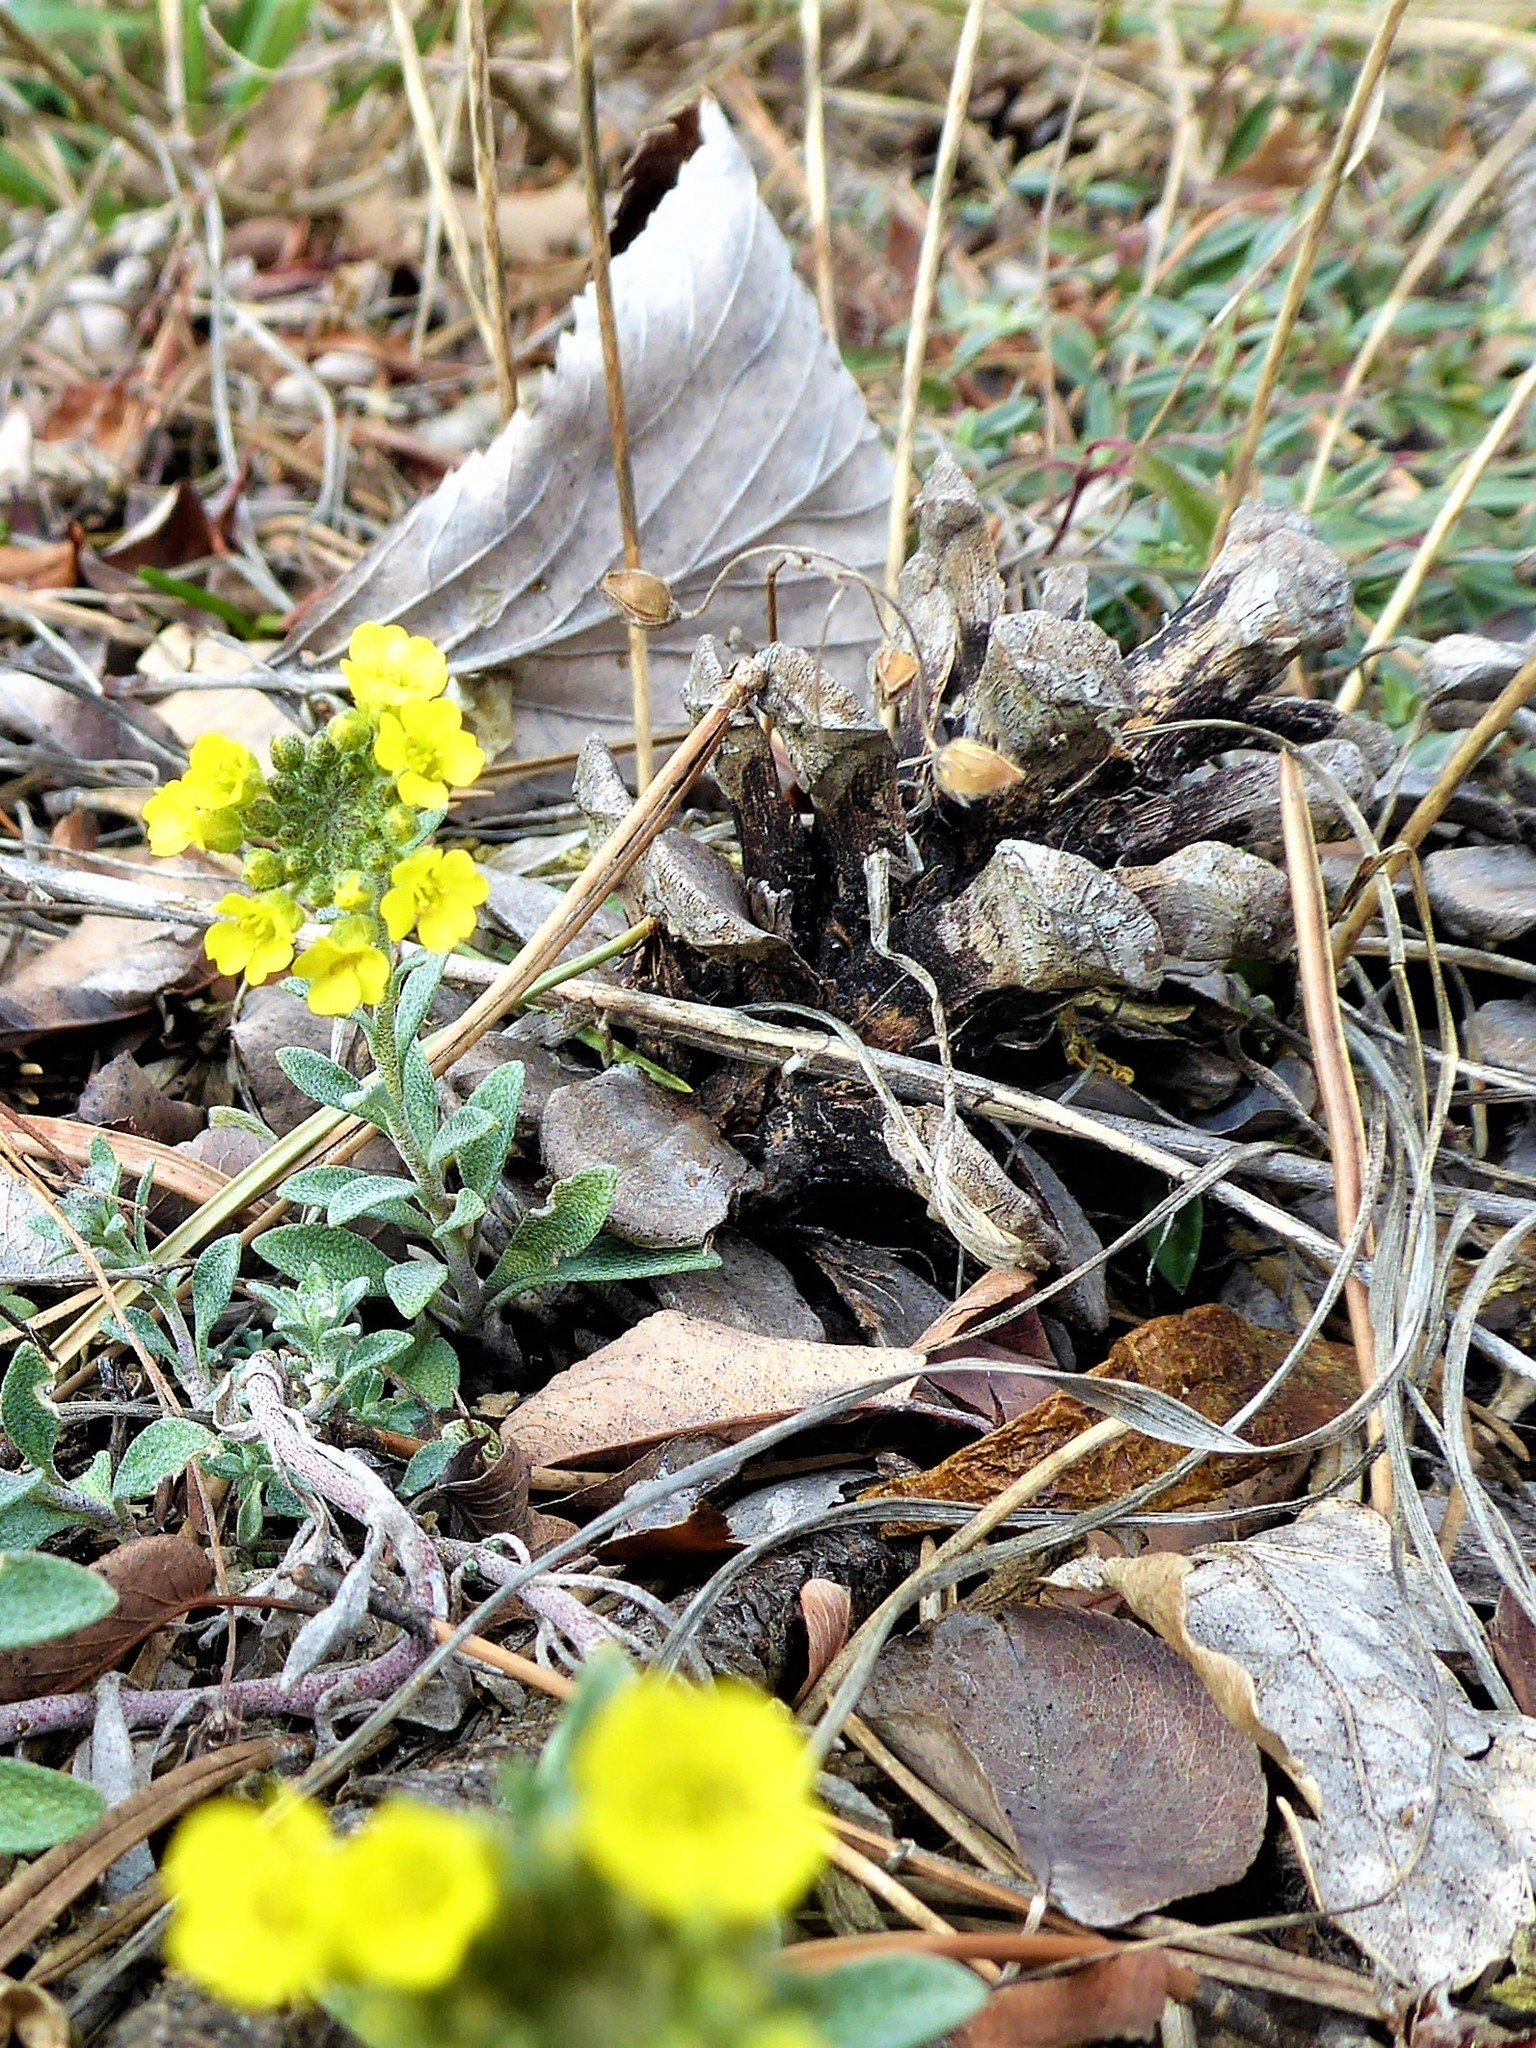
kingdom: Plantae
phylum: Tracheophyta
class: Magnoliopsida
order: Brassicales
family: Brassicaceae
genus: Alyssum
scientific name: Alyssum gmelinii
